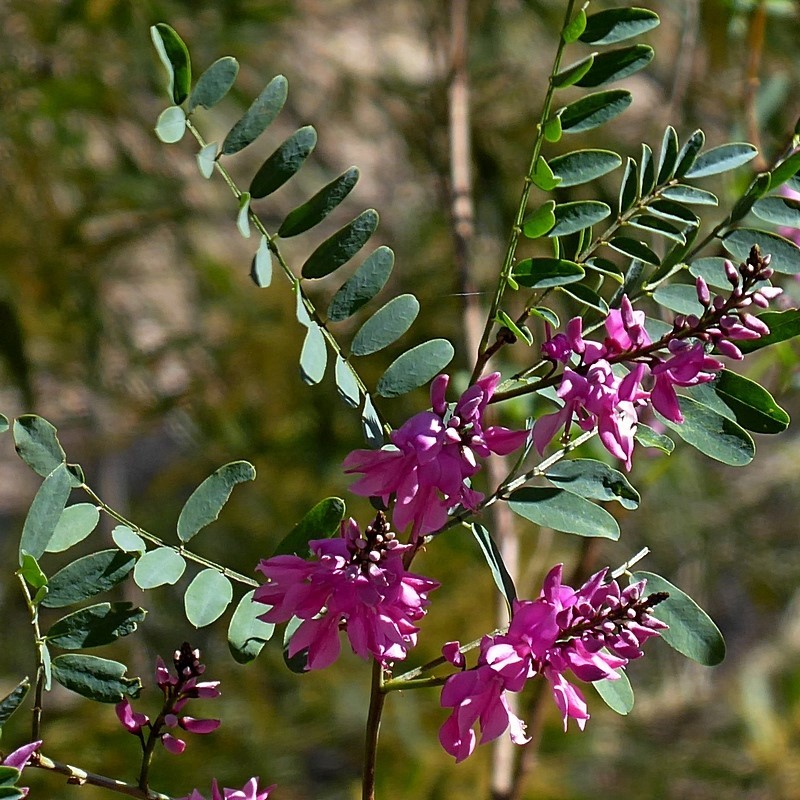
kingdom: Plantae
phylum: Tracheophyta
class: Magnoliopsida
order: Fabales
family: Fabaceae
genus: Indigofera
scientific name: Indigofera australis
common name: Australian indigo
